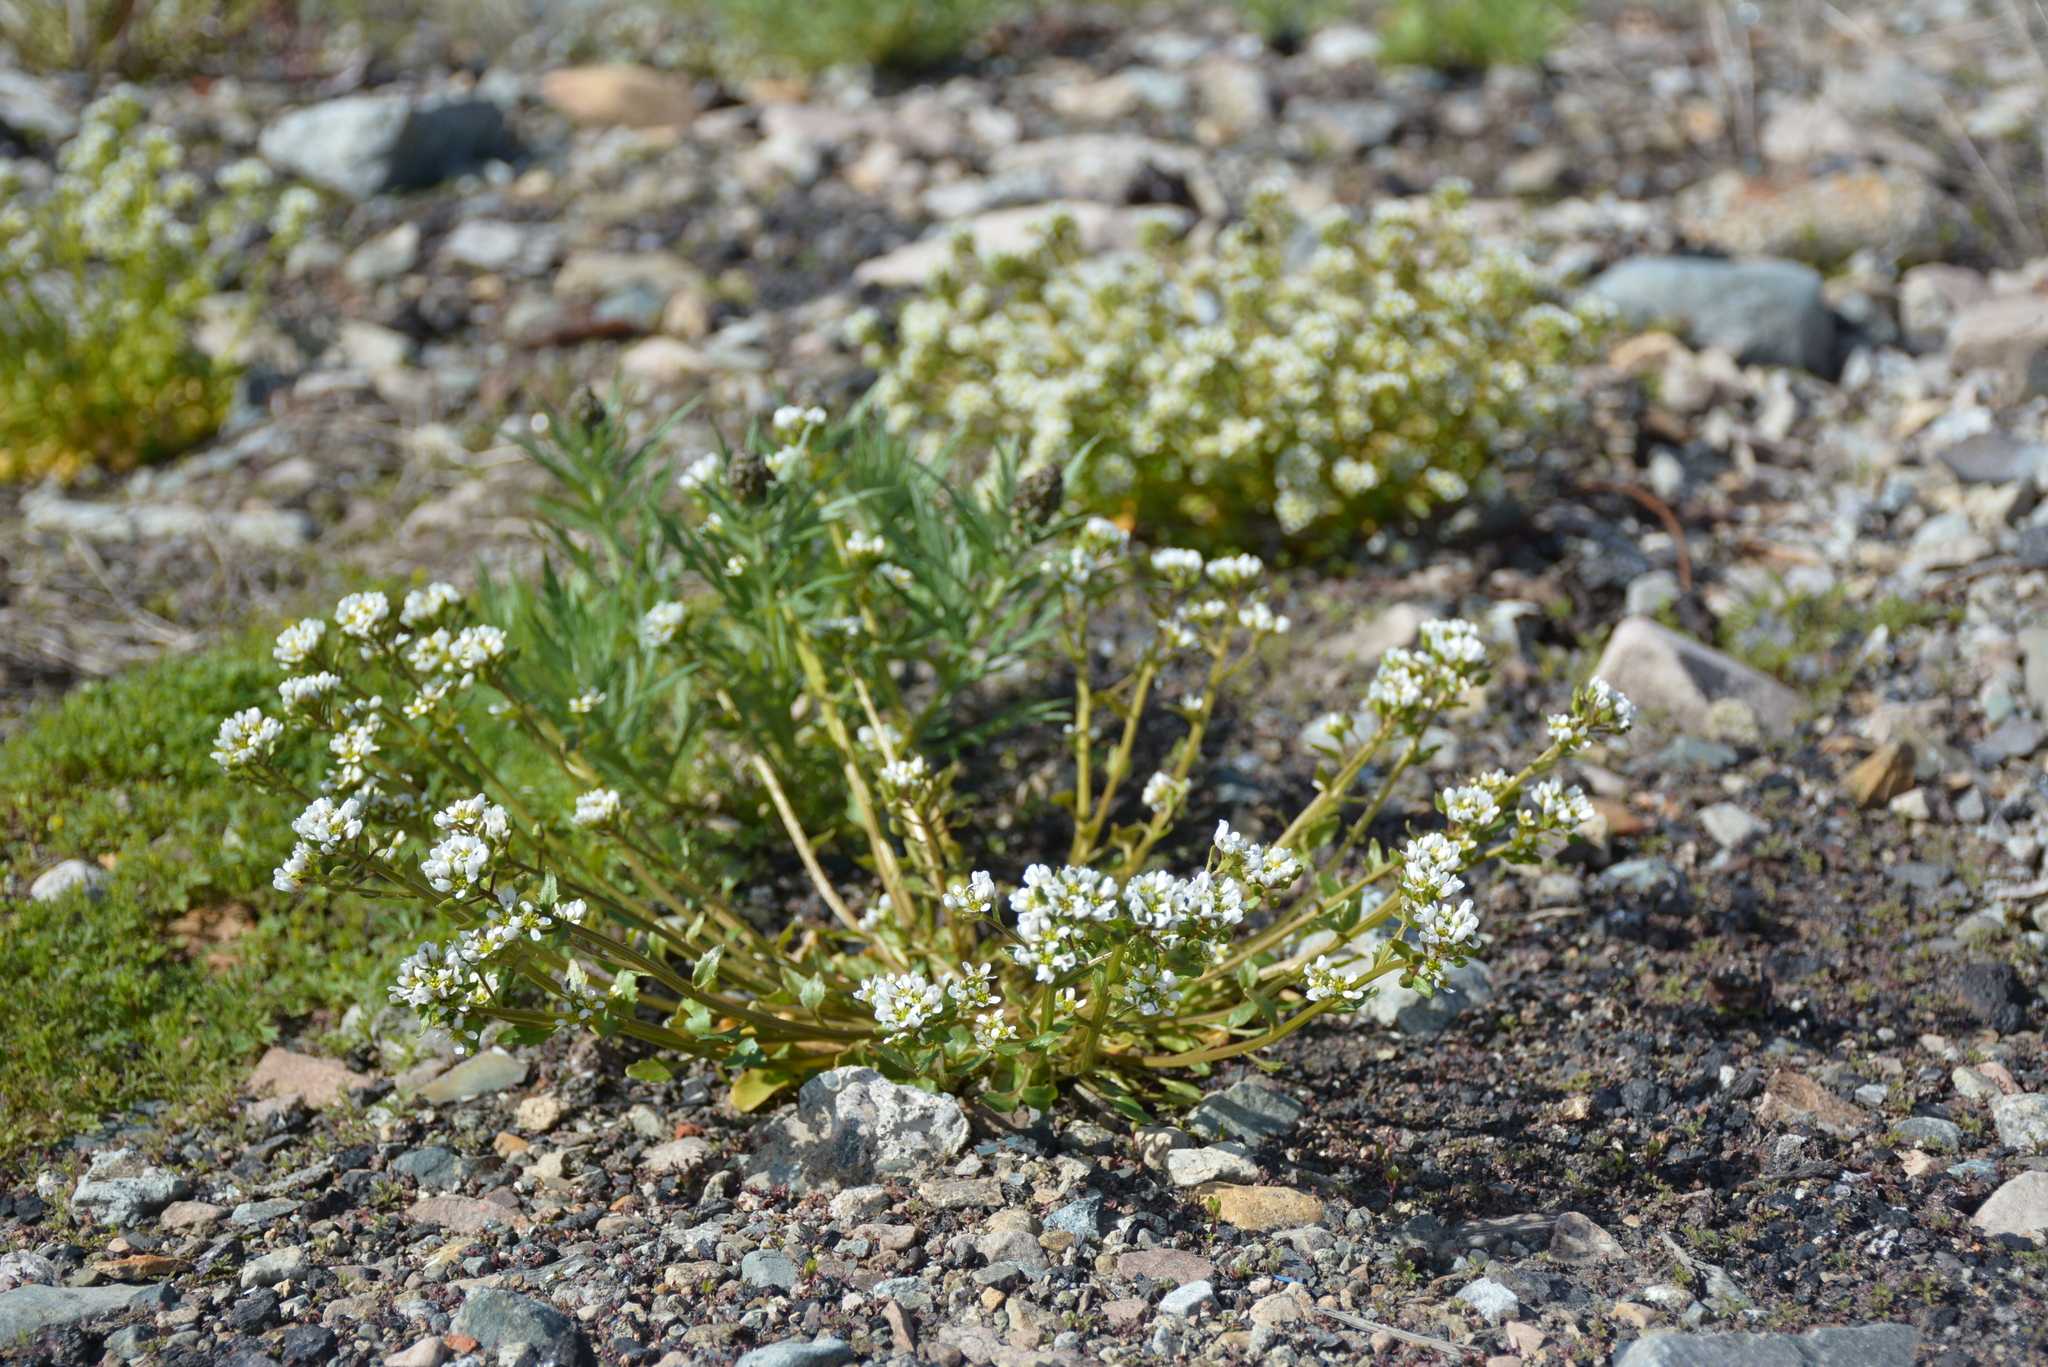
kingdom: Plantae
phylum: Tracheophyta
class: Magnoliopsida
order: Brassicales
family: Brassicaceae
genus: Cochlearia
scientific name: Cochlearia groenlandica
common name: Danish scurvygrass
